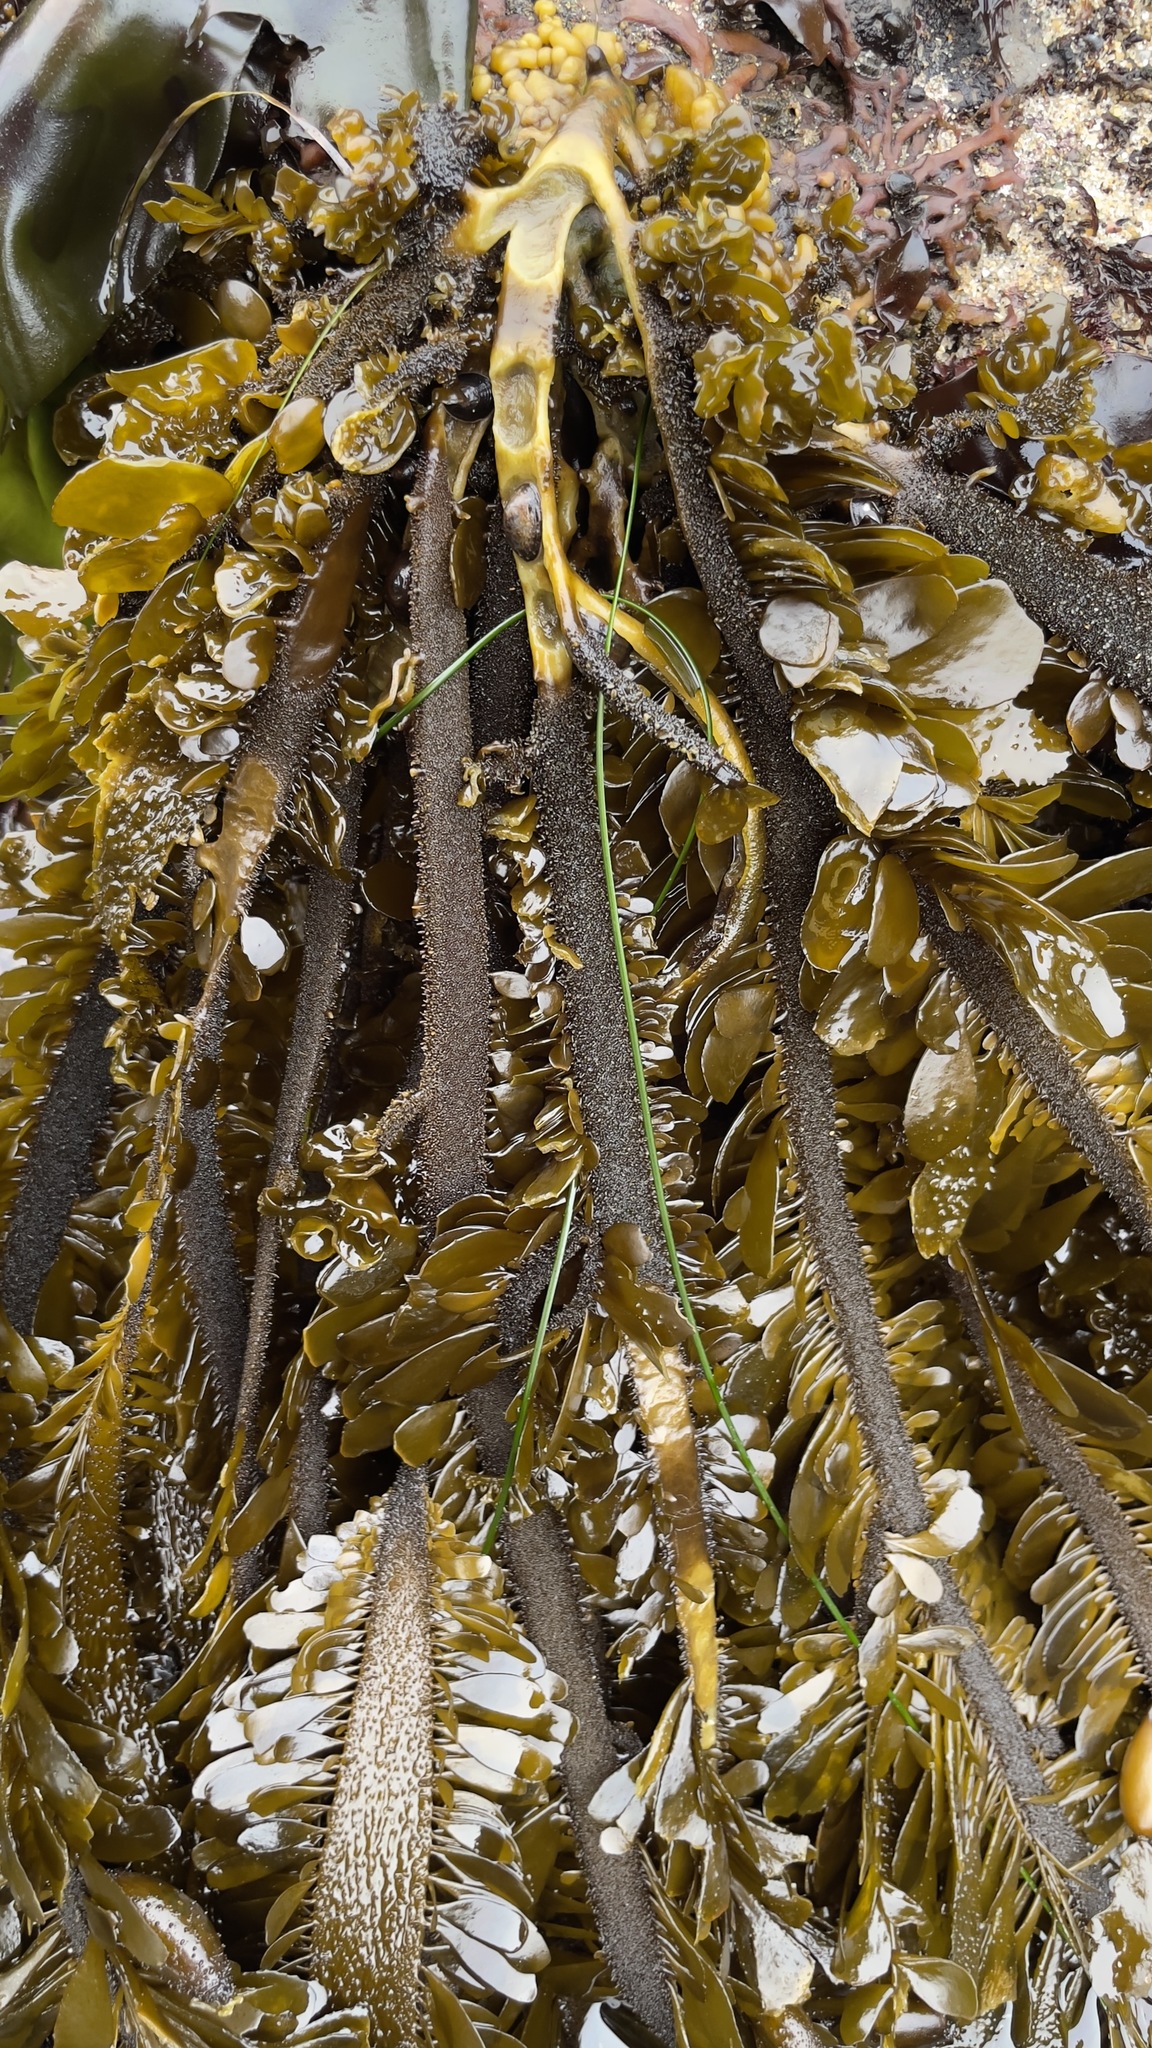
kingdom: Chromista
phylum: Ochrophyta
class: Phaeophyceae
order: Laminariales
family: Lessoniaceae
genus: Egregia
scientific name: Egregia menziesii
